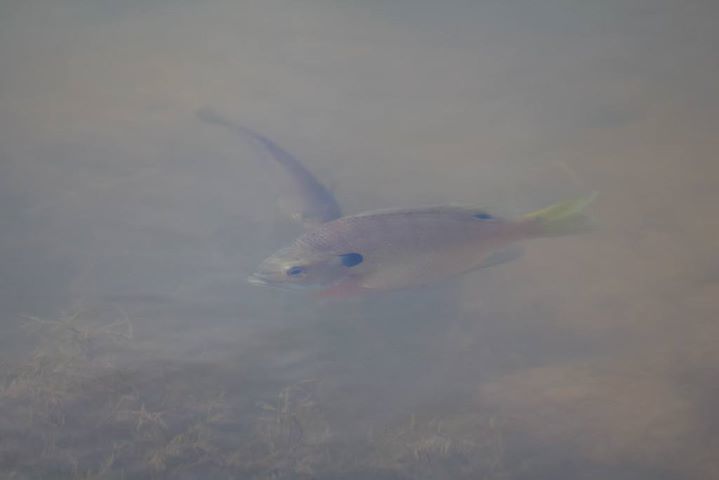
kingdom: Animalia
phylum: Chordata
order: Perciformes
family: Centrarchidae
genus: Lepomis
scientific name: Lepomis macrochirus
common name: Bluegill
